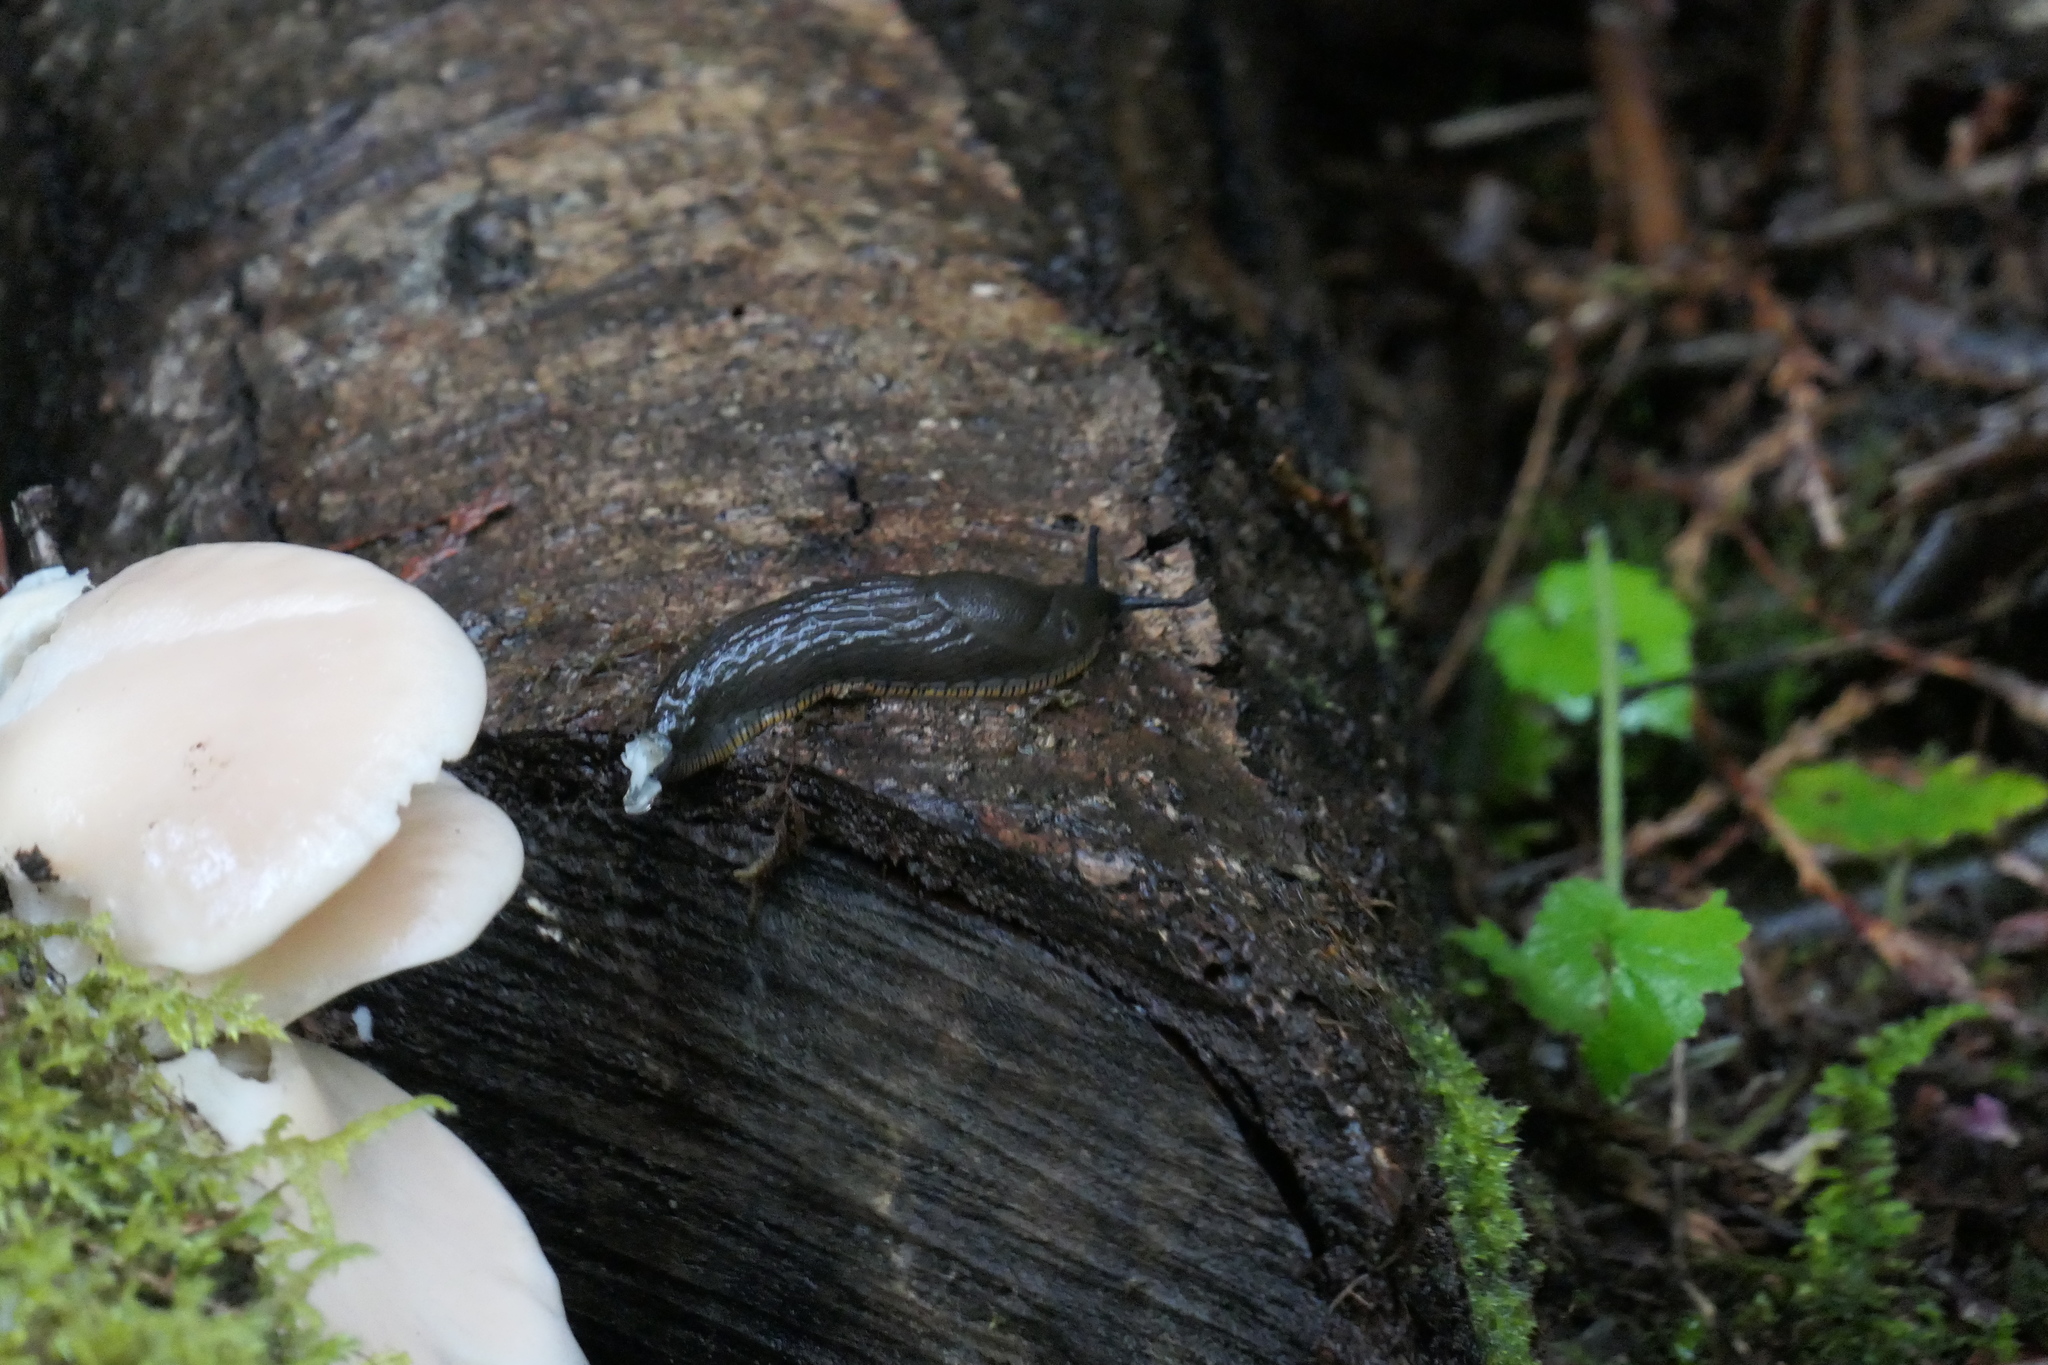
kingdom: Animalia
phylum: Mollusca
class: Gastropoda
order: Stylommatophora
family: Arionidae
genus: Arion
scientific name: Arion
